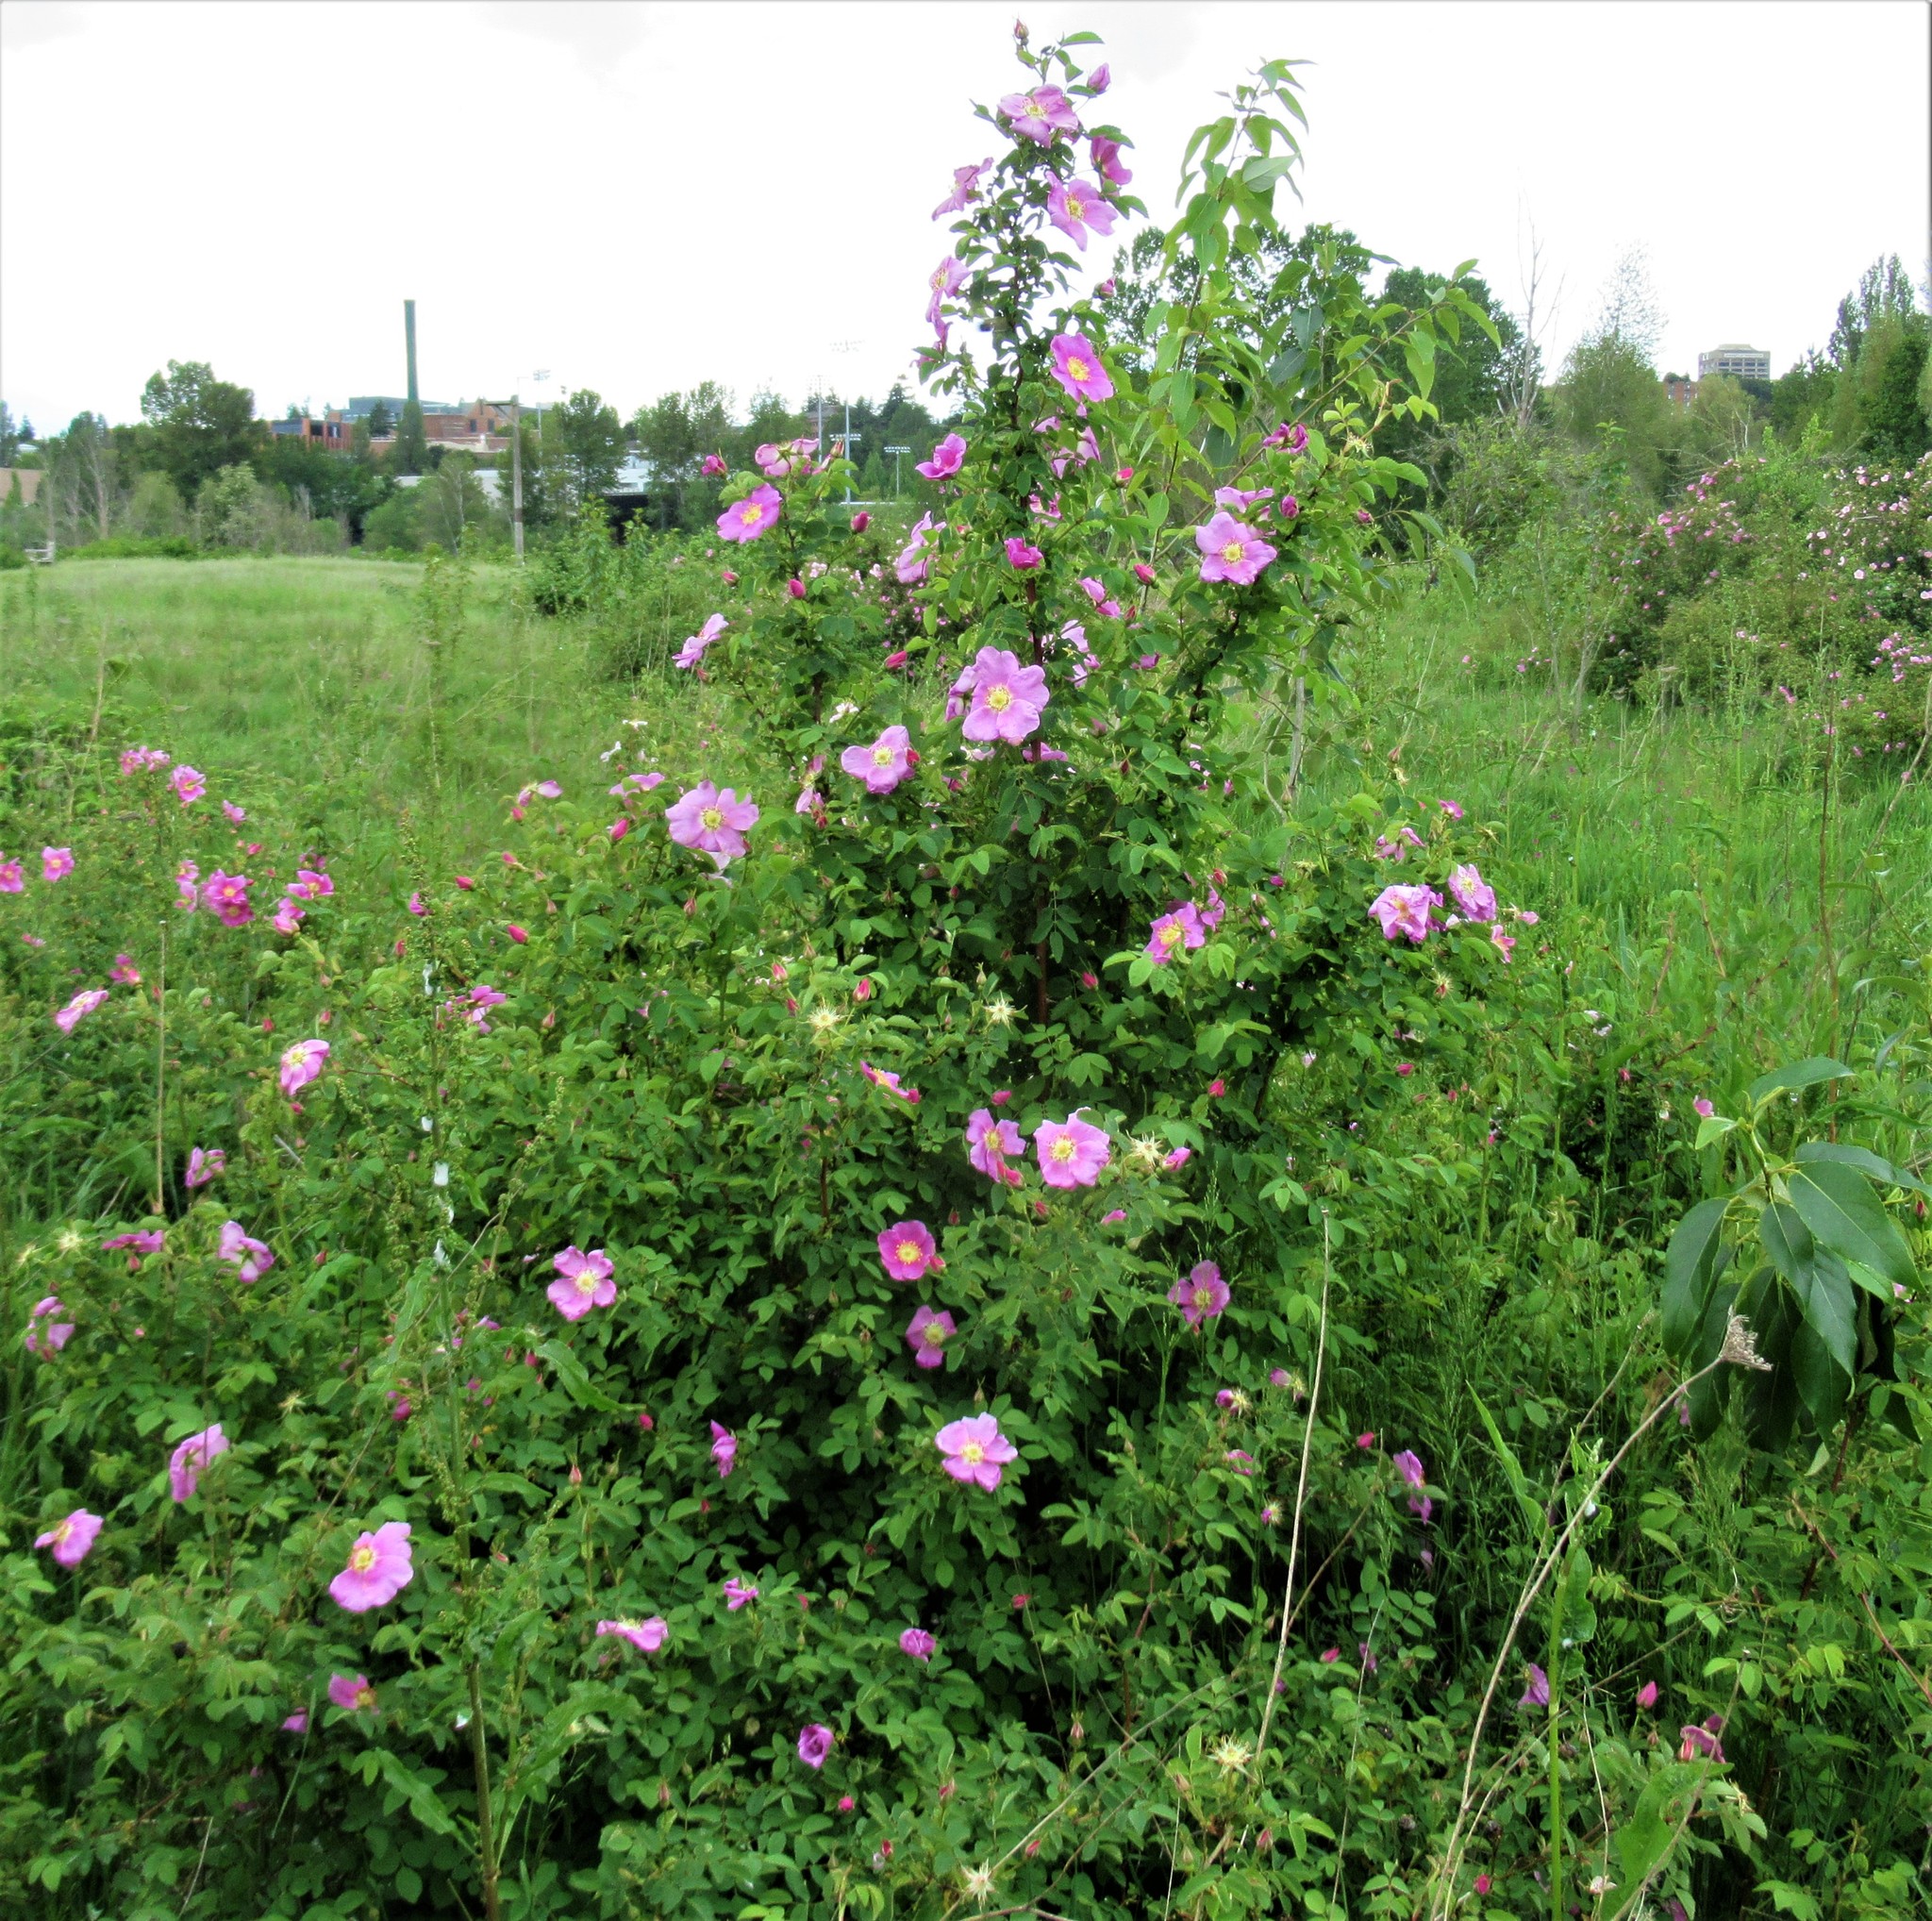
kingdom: Plantae
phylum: Tracheophyta
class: Magnoliopsida
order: Rosales
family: Rosaceae
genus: Rosa
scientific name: Rosa nutkana
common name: Nootka rose
